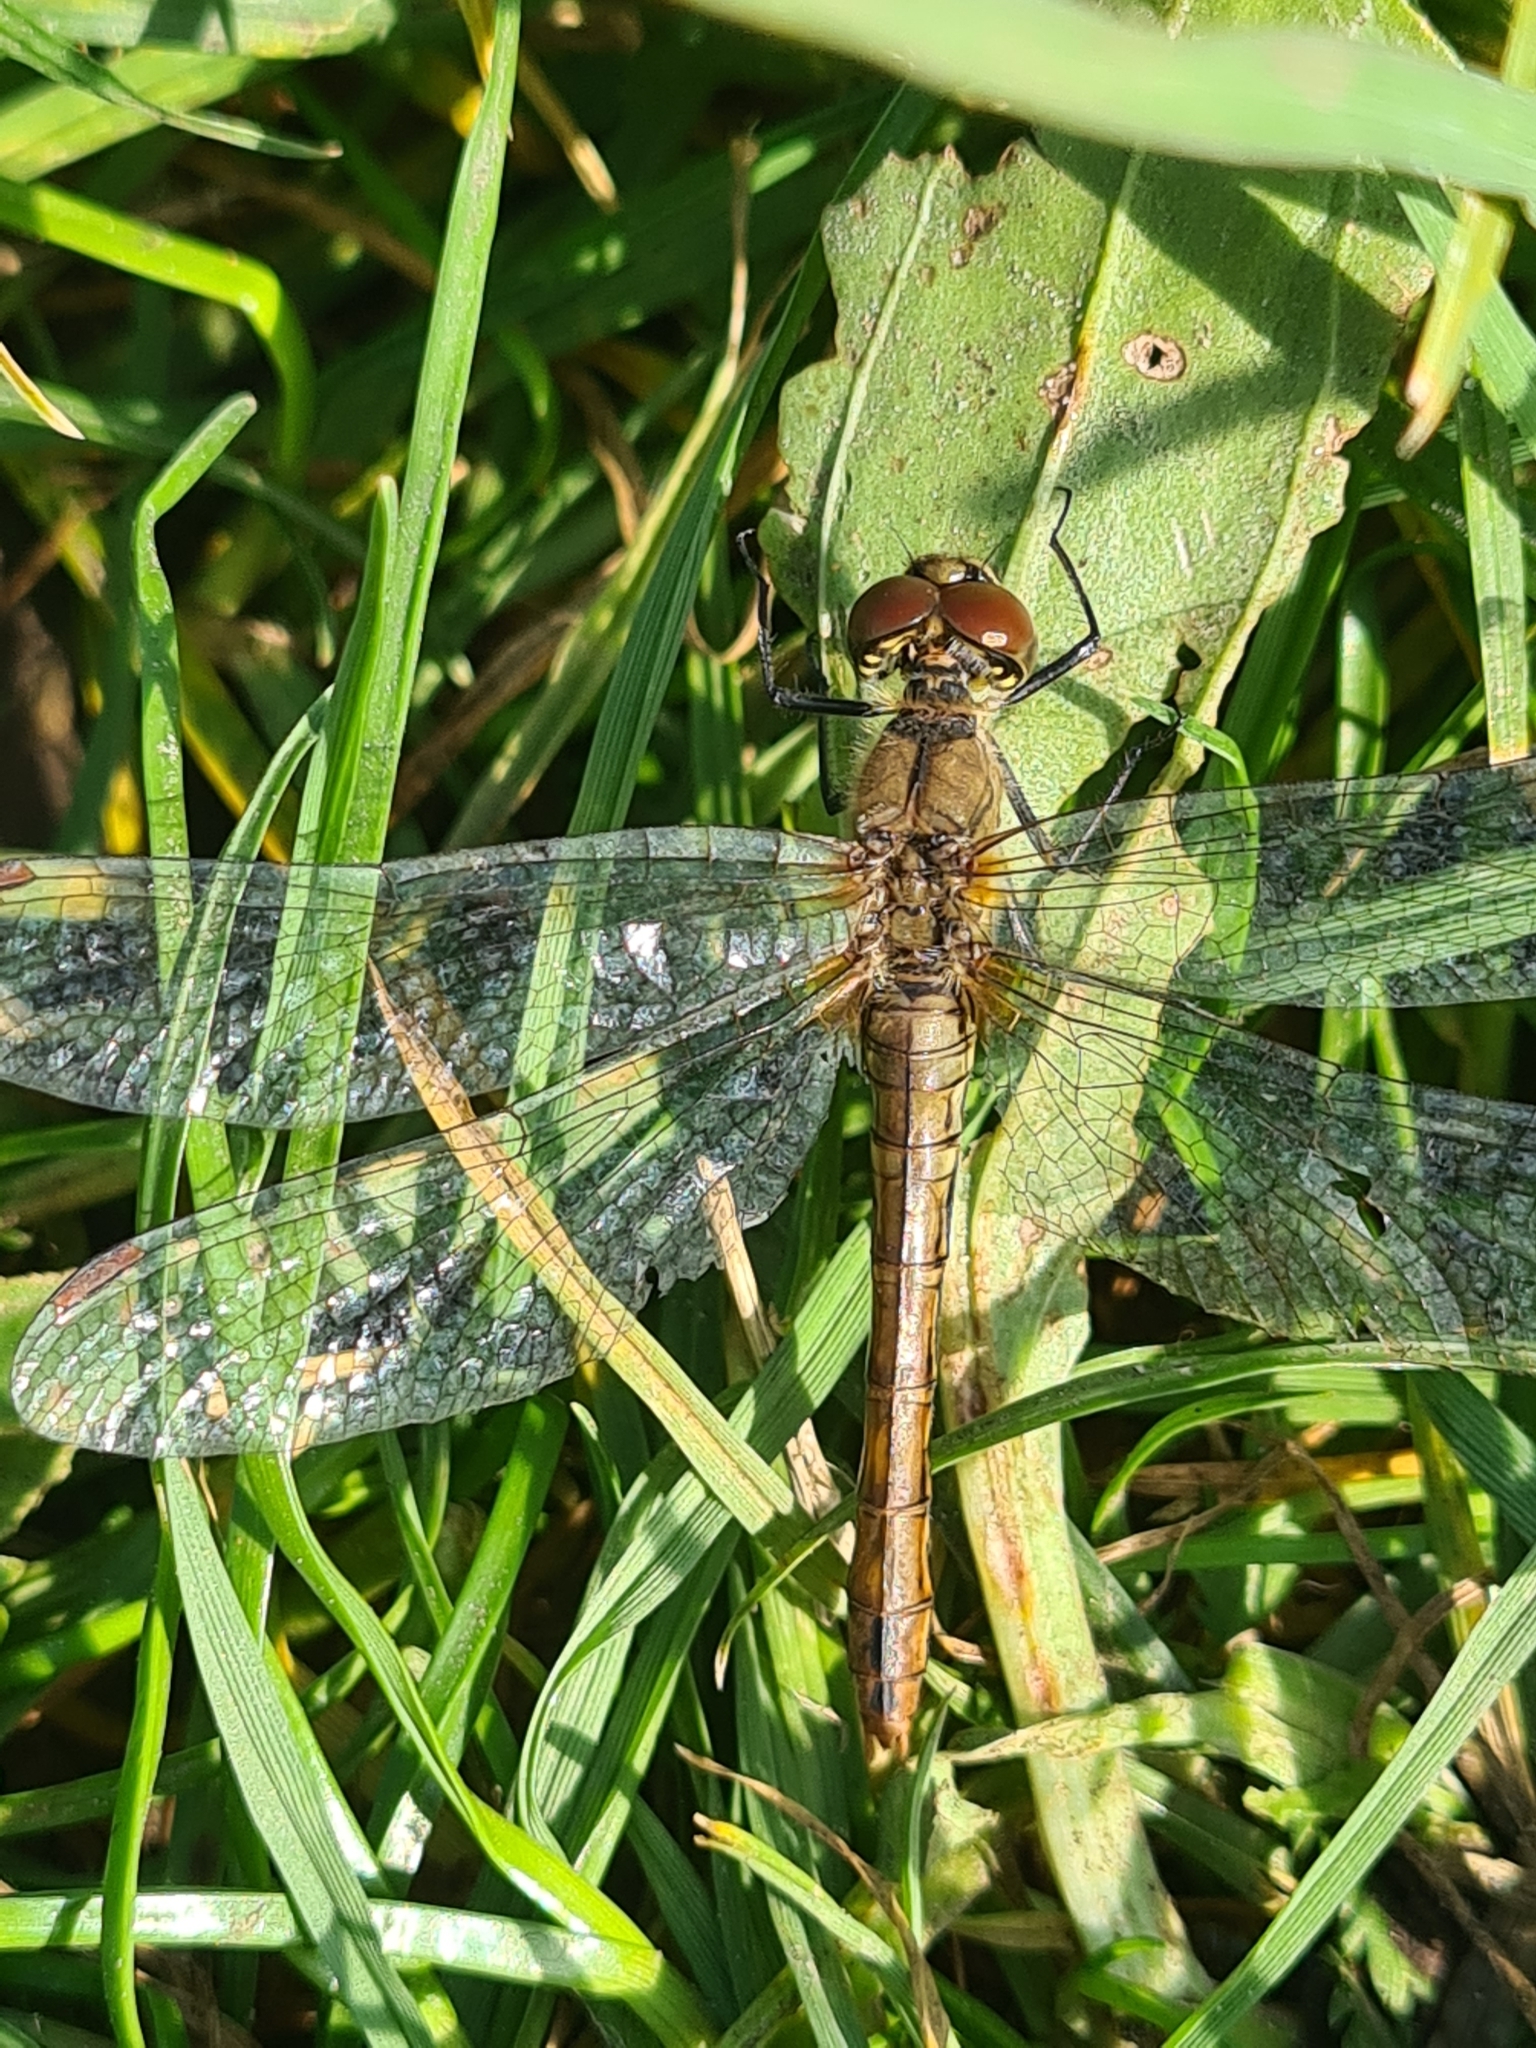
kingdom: Animalia
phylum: Arthropoda
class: Insecta
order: Odonata
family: Libellulidae
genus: Sympetrum
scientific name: Sympetrum sanguineum
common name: Ruddy darter
